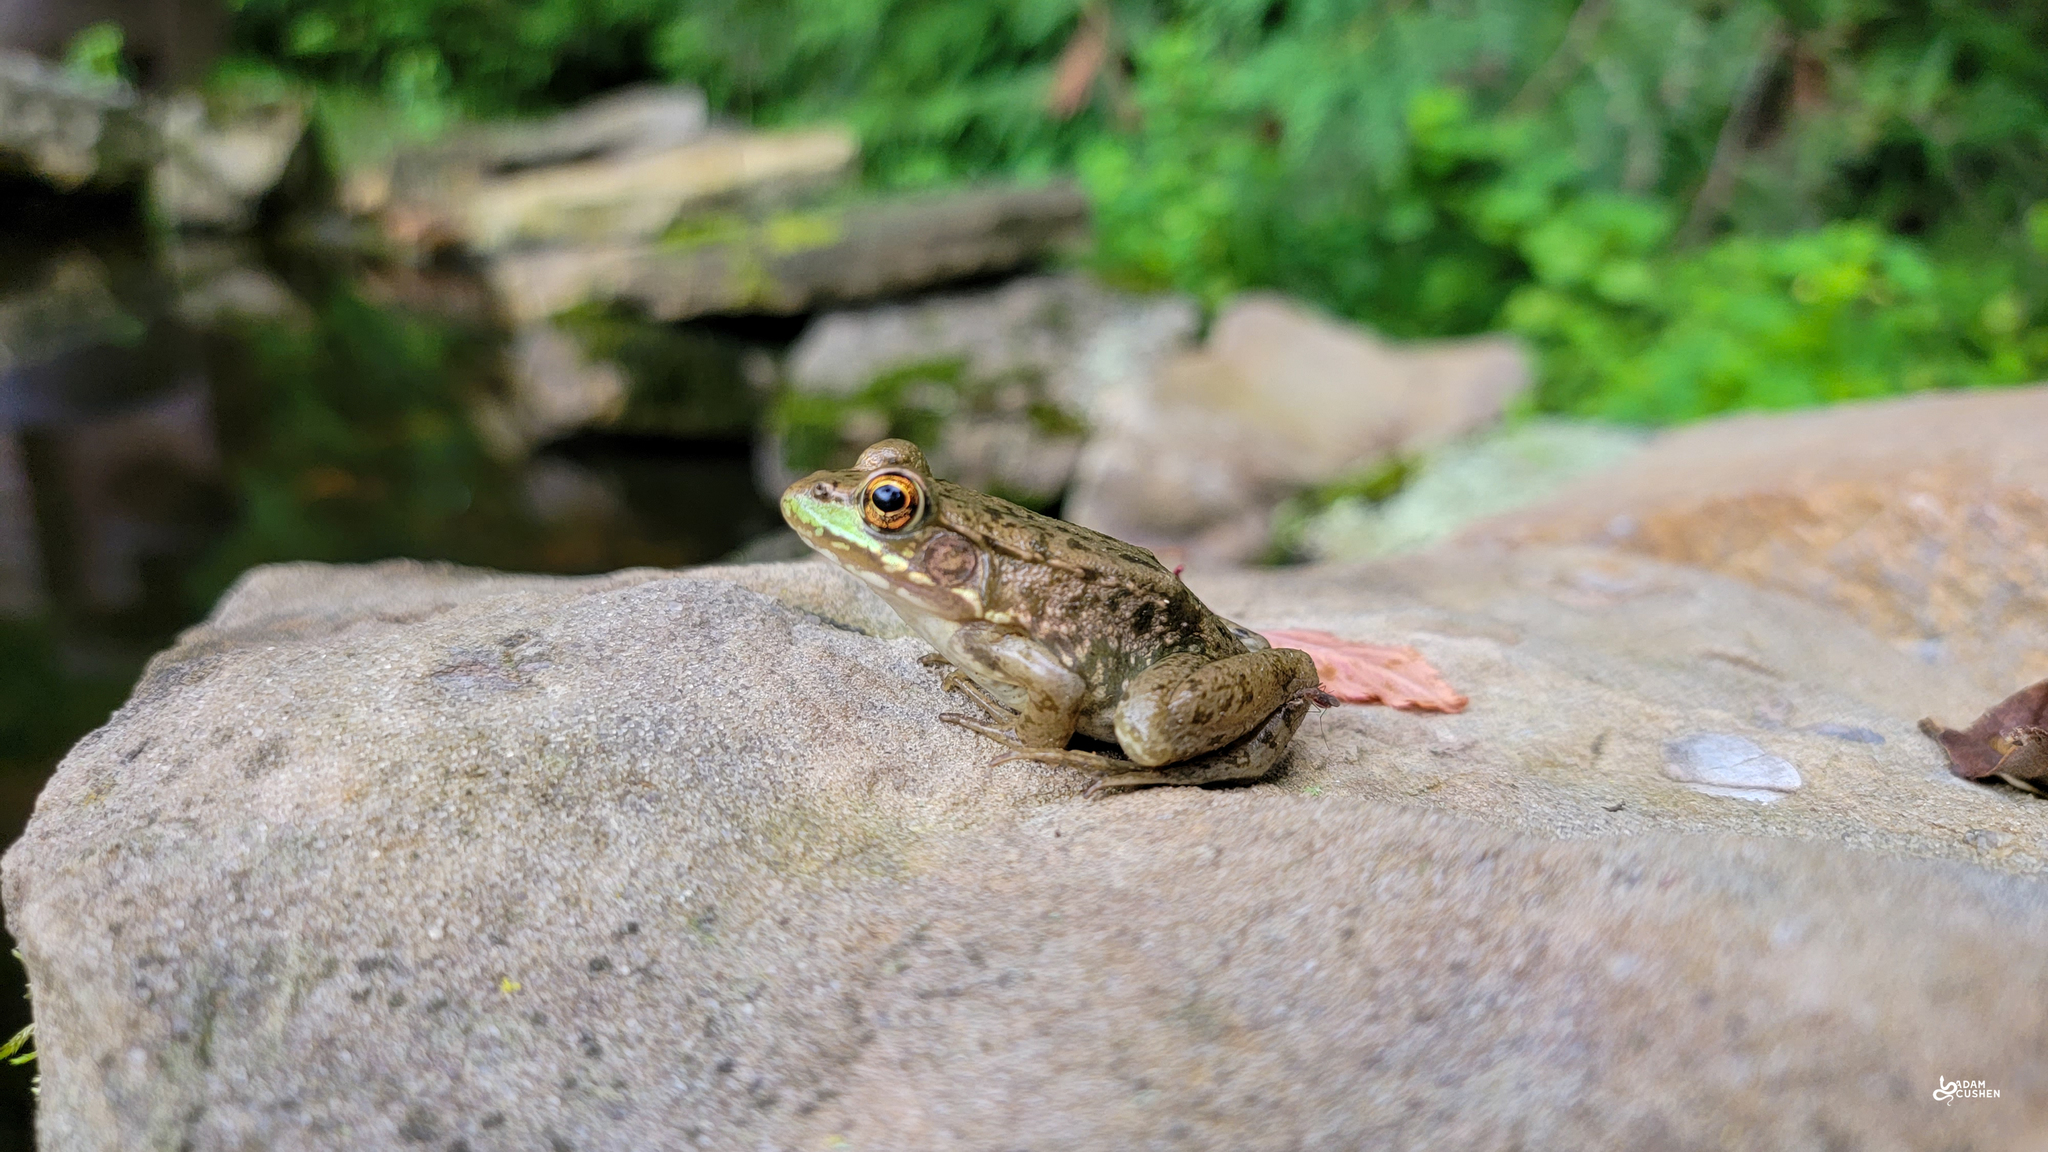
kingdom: Animalia
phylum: Chordata
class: Amphibia
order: Anura
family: Ranidae
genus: Lithobates
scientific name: Lithobates clamitans
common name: Green frog
